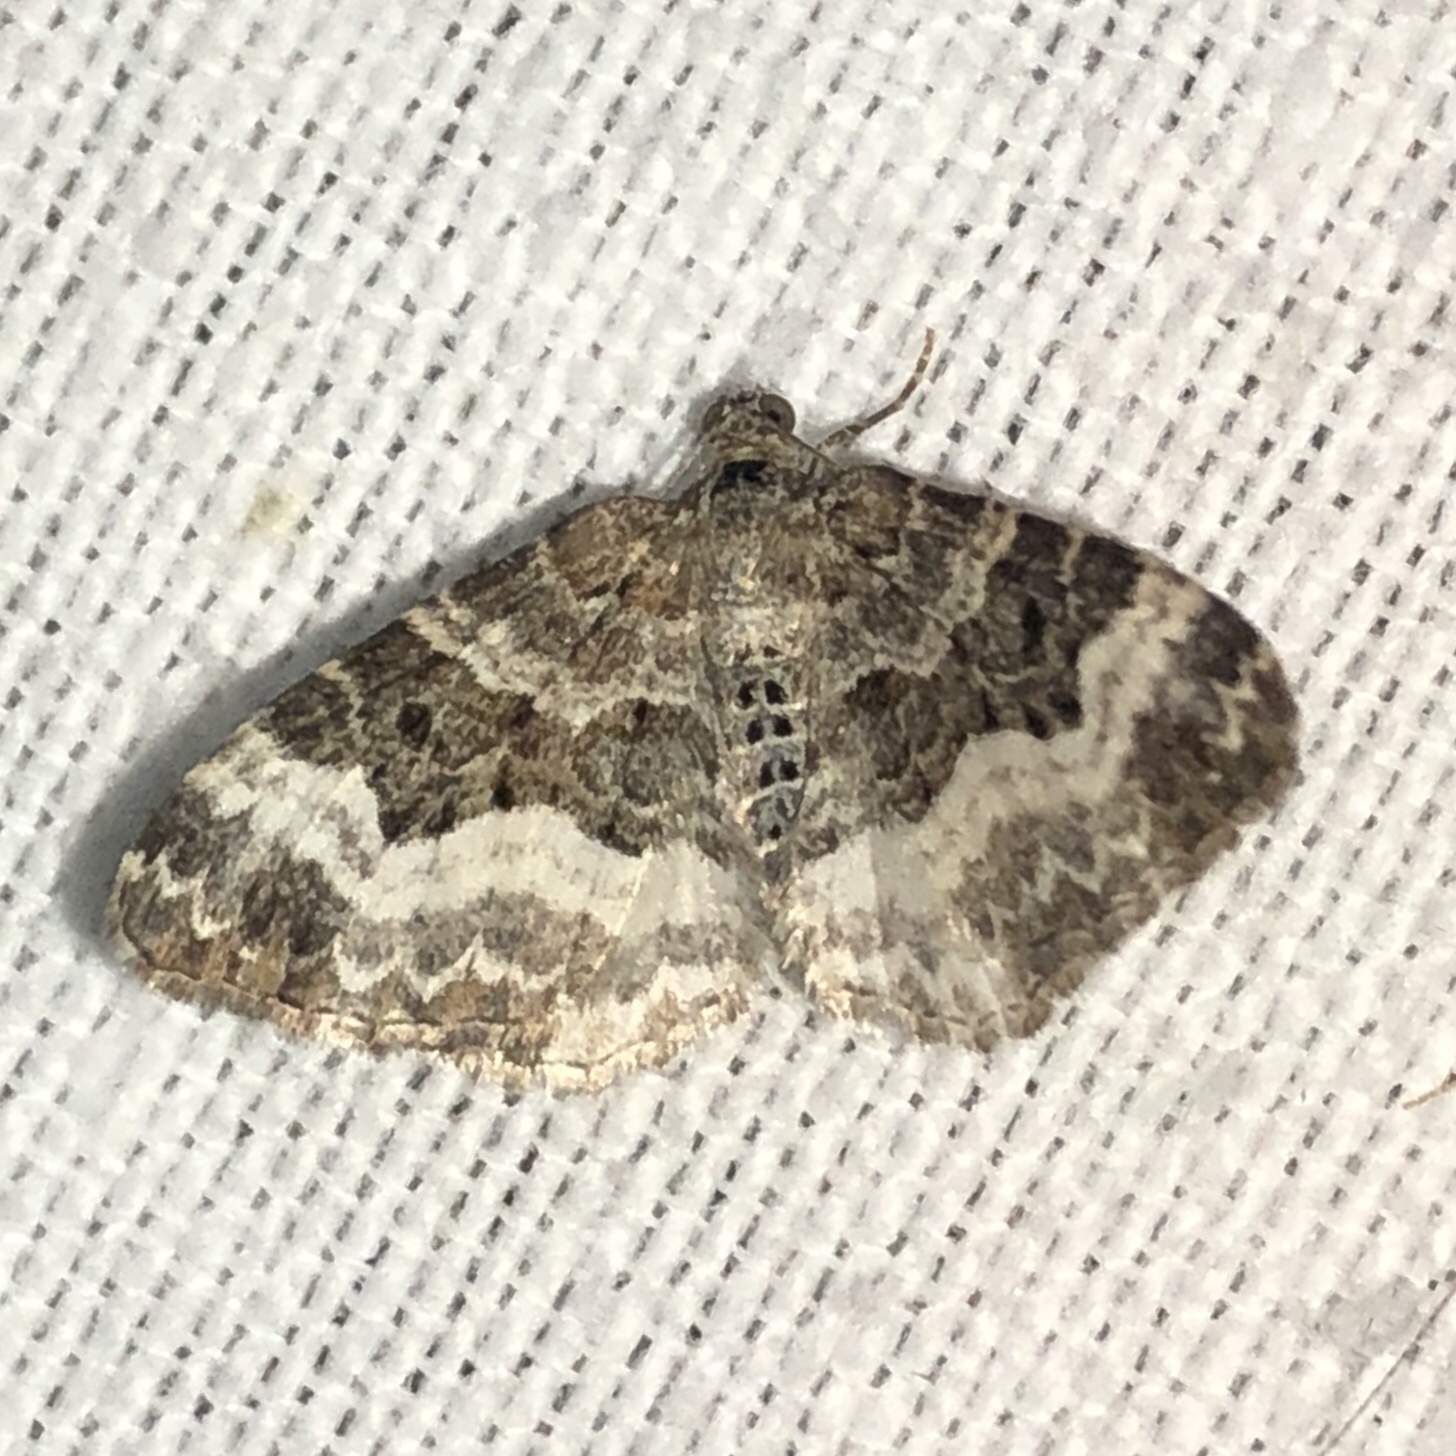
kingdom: Animalia
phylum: Arthropoda
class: Insecta
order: Lepidoptera
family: Geometridae
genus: Epirrhoe
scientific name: Epirrhoe alternata
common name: Common carpet
